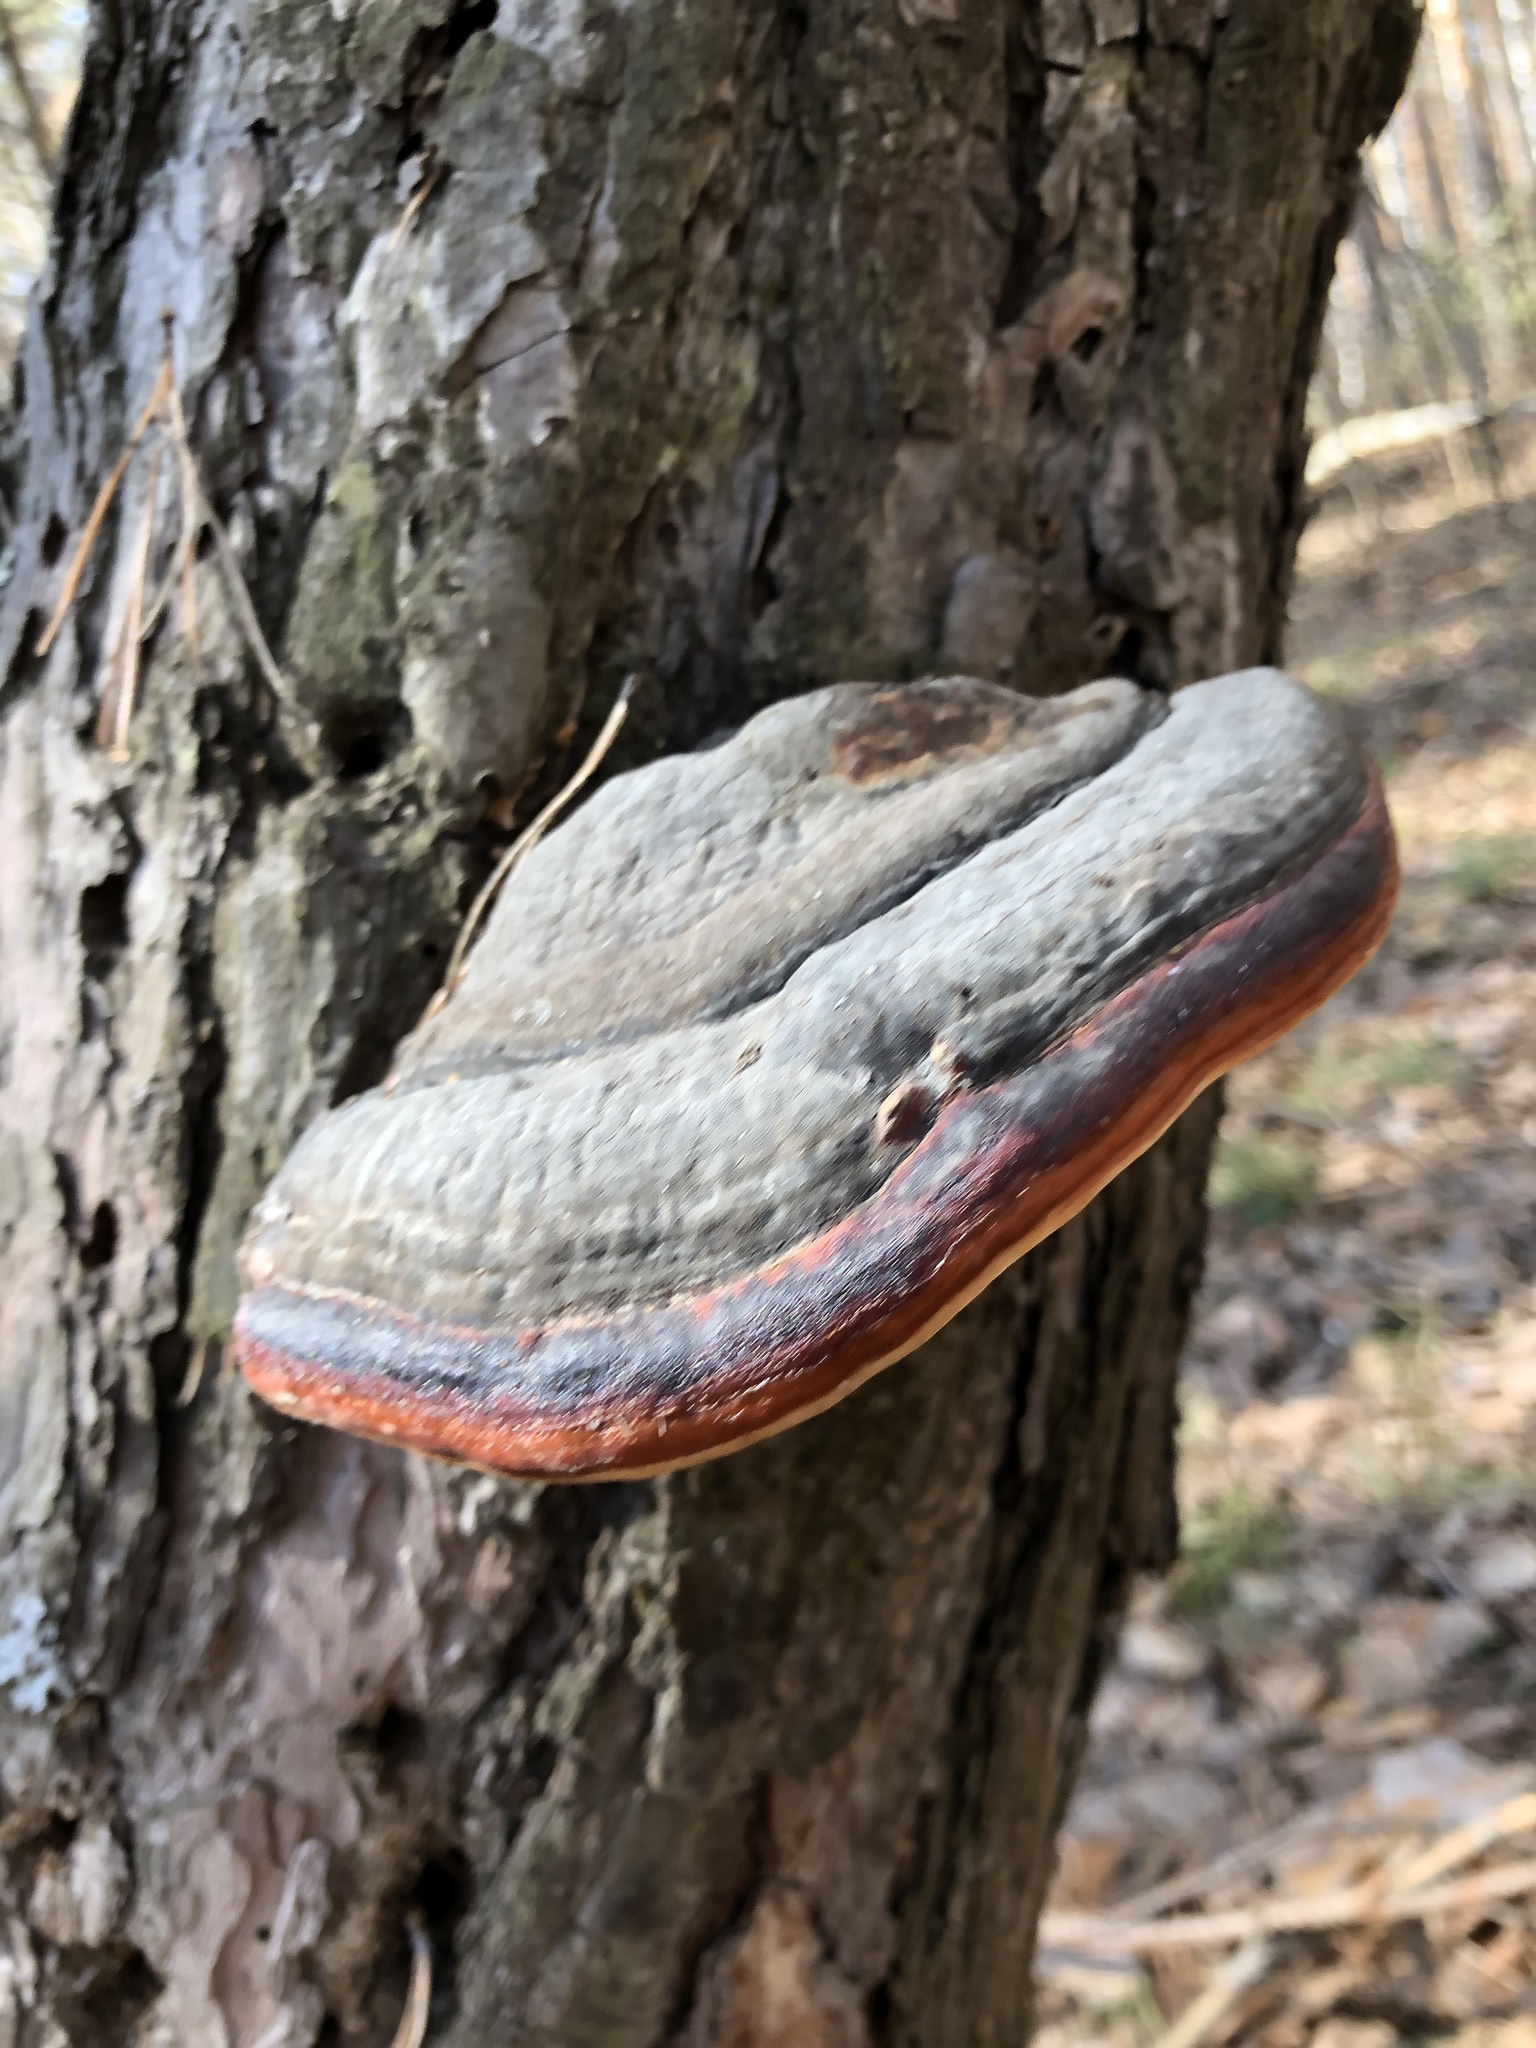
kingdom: Fungi
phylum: Basidiomycota
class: Agaricomycetes
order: Polyporales
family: Fomitopsidaceae
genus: Fomitopsis
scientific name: Fomitopsis pinicola
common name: Red-belted bracket
